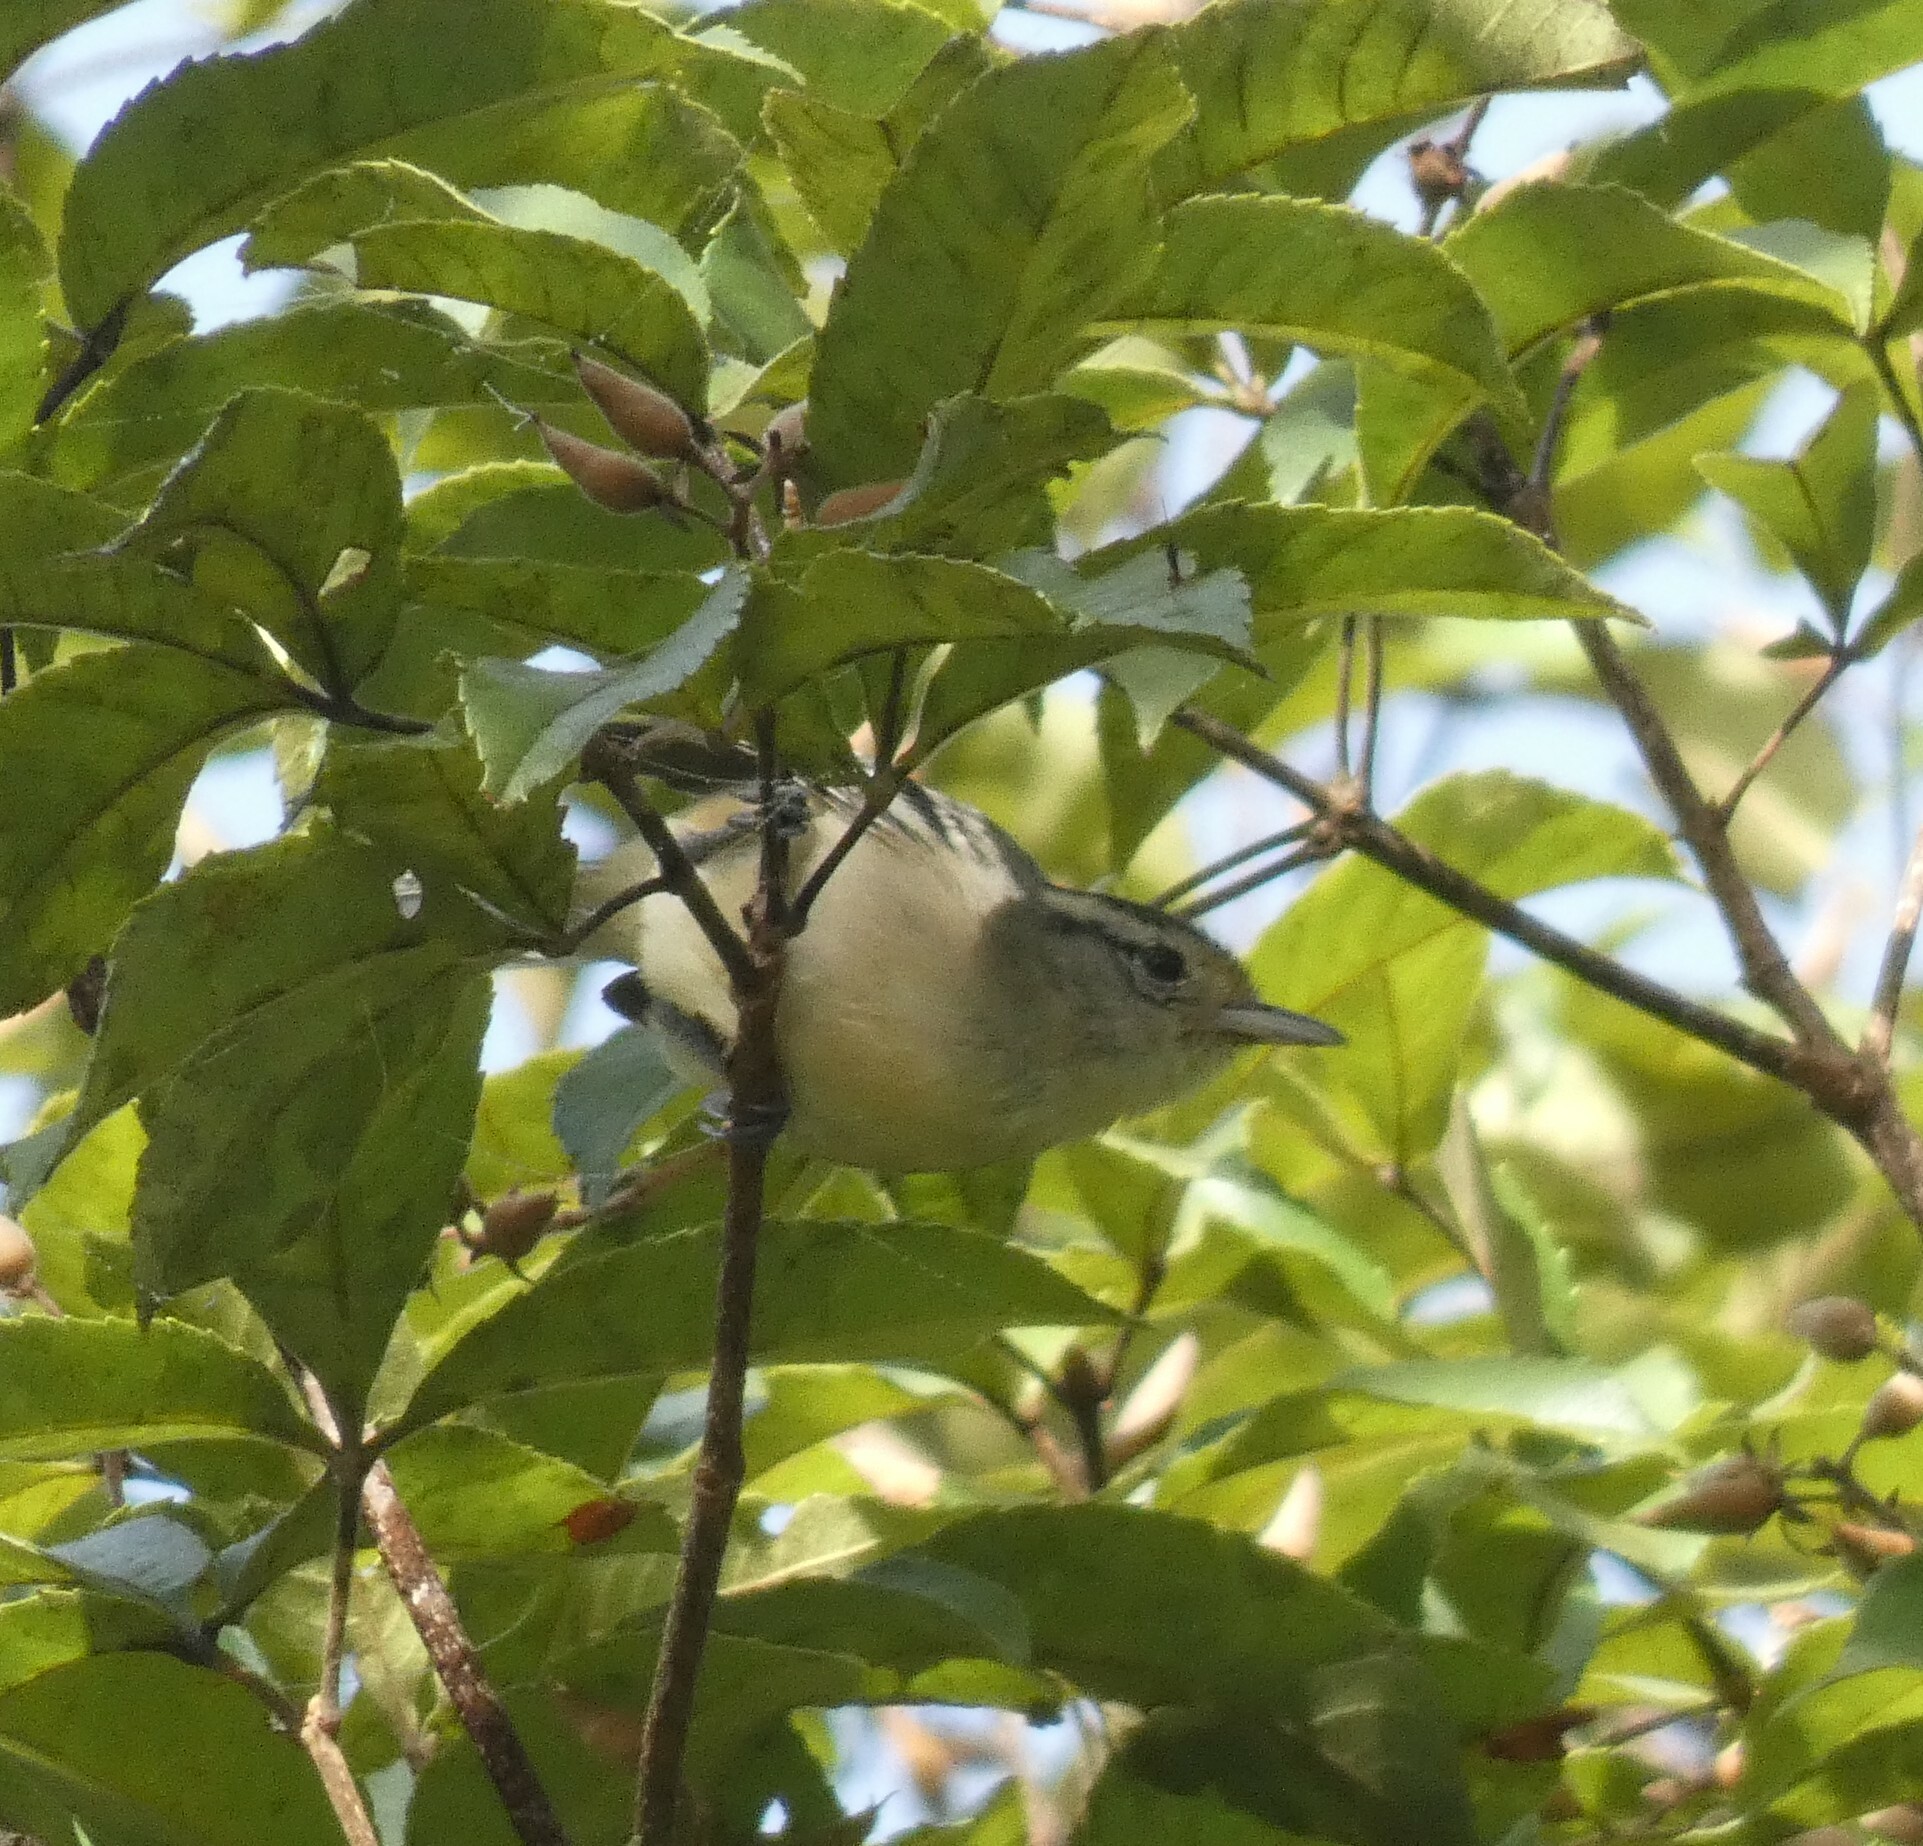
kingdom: Animalia
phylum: Chordata
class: Aves
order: Passeriformes
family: Thamnophilidae
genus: Herpsilochmus
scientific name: Herpsilochmus atricapillus
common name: Black-capped antwren
